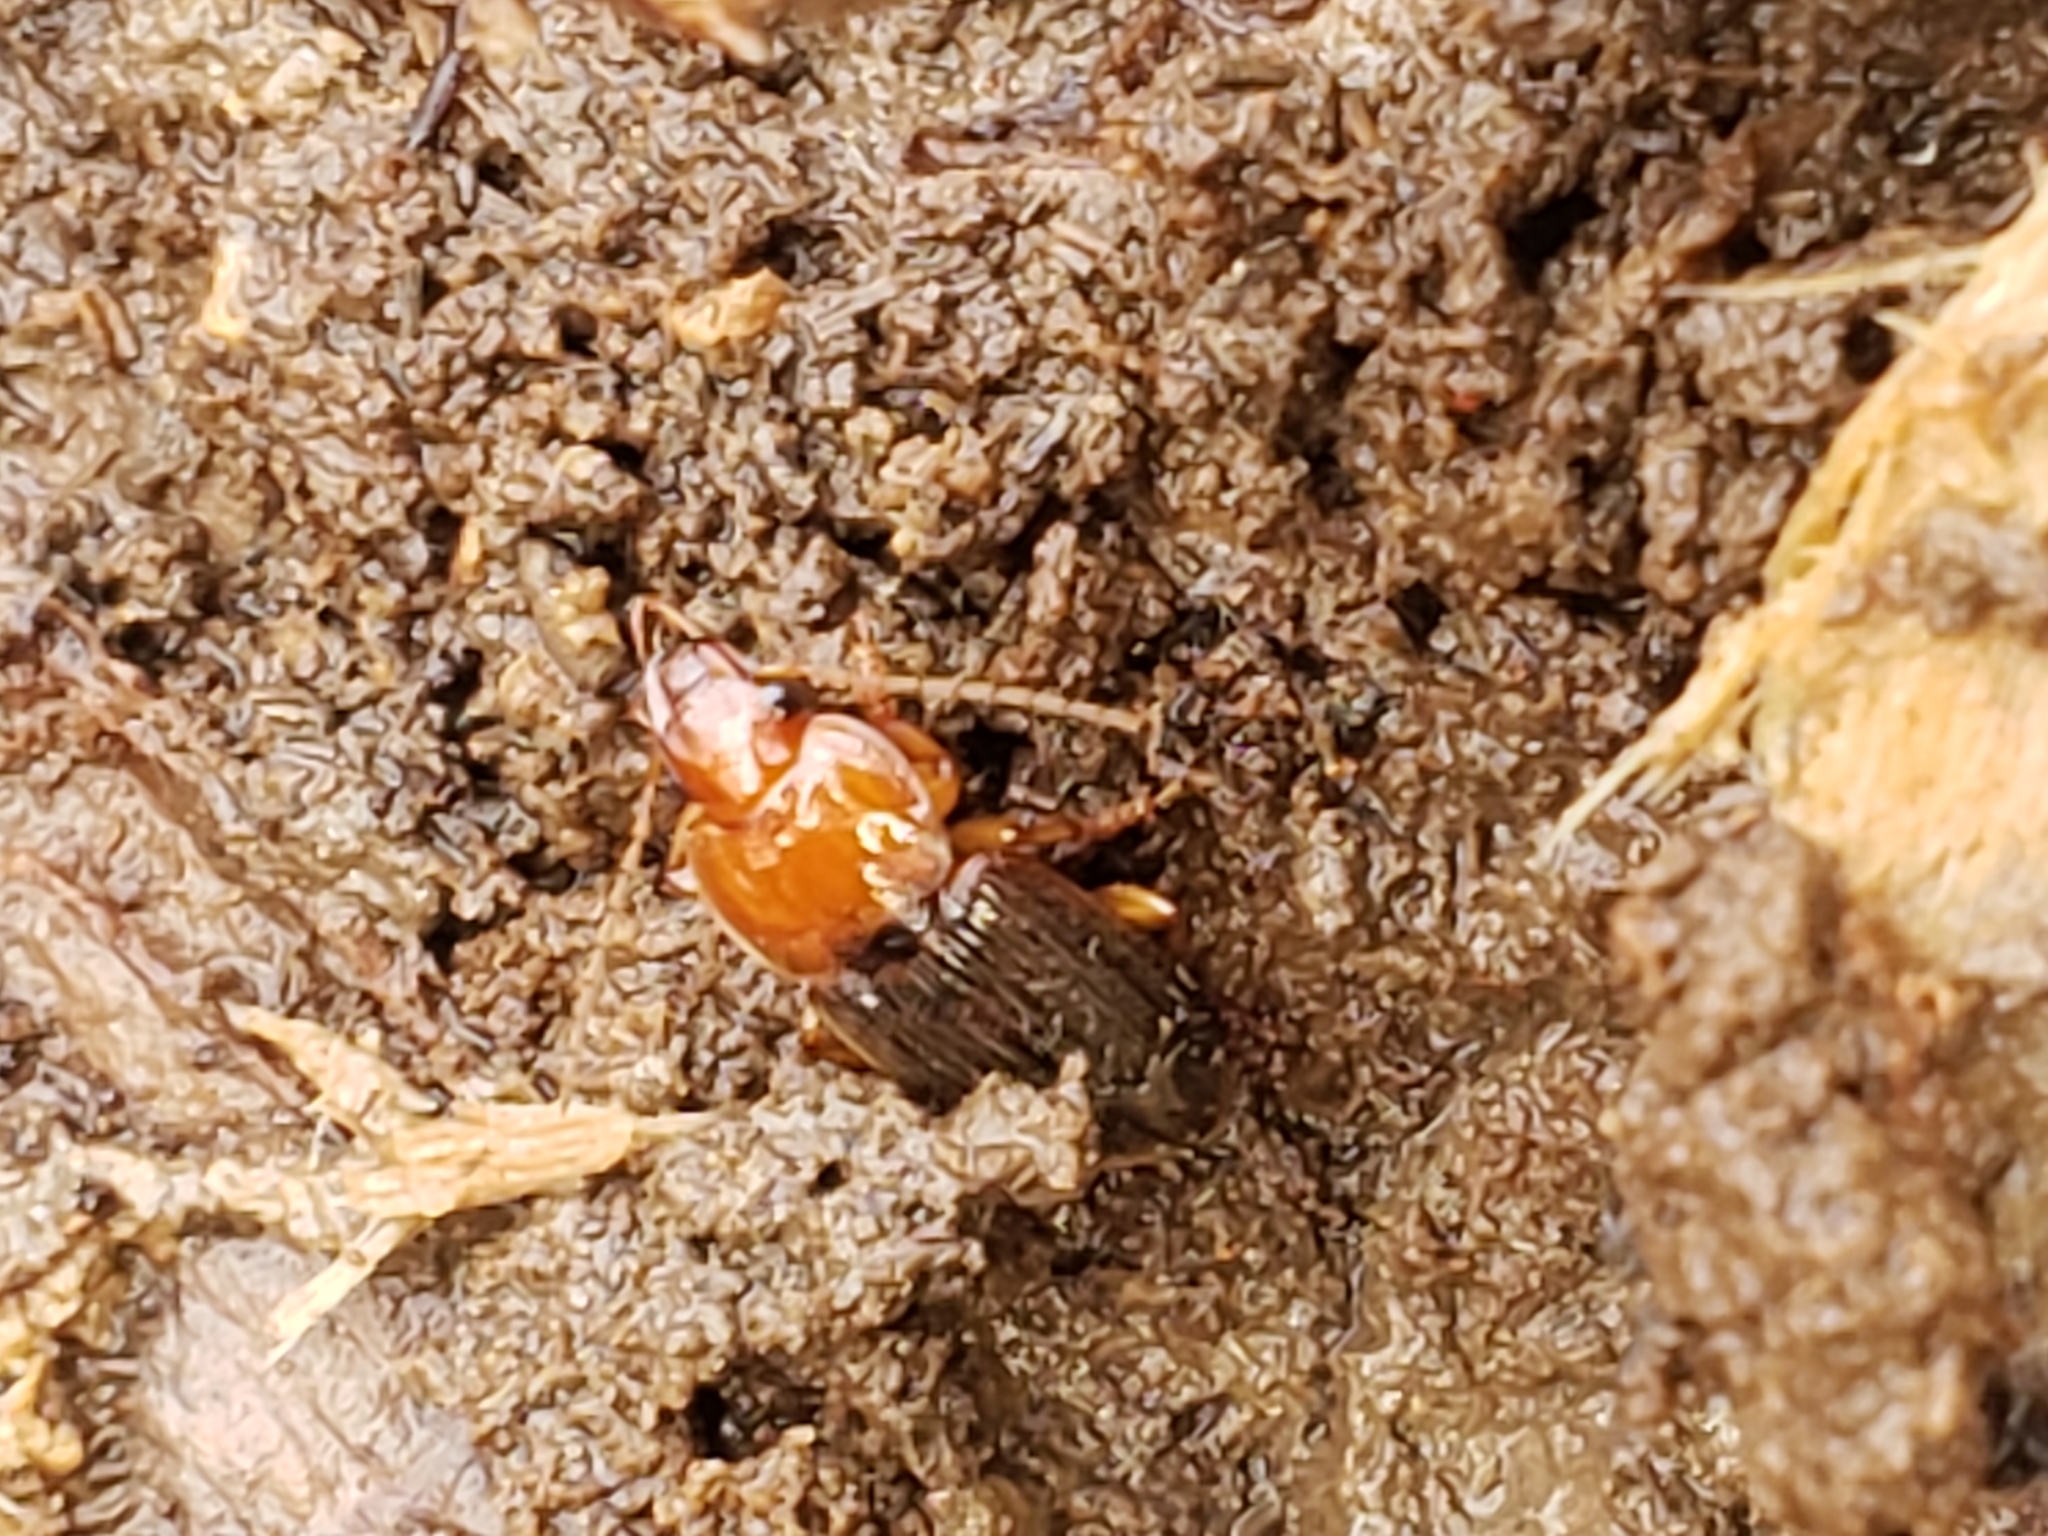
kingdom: Animalia
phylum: Arthropoda
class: Insecta
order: Coleoptera
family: Carabidae
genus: Amphasia
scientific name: Amphasia interstitialis
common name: Red-headed ground beetle
